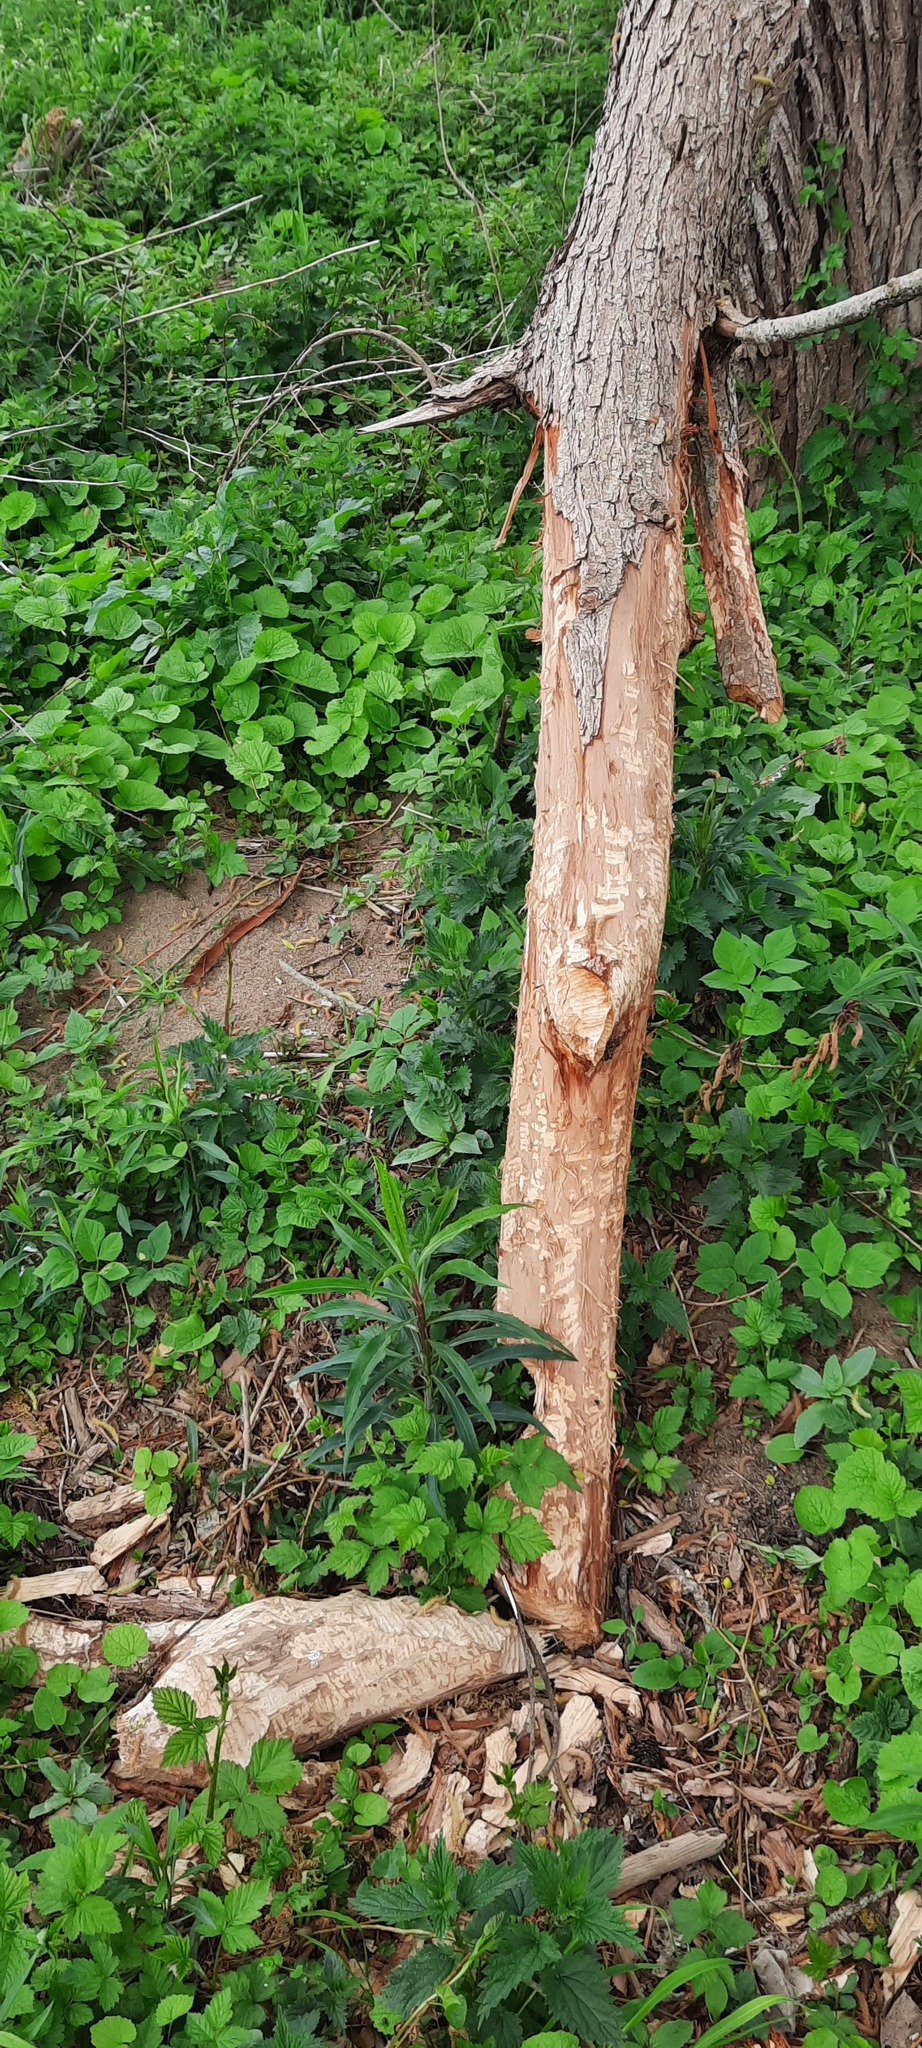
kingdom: Animalia
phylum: Chordata
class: Mammalia
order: Rodentia
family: Castoridae
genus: Castor
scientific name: Castor fiber
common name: Eurasian beaver
